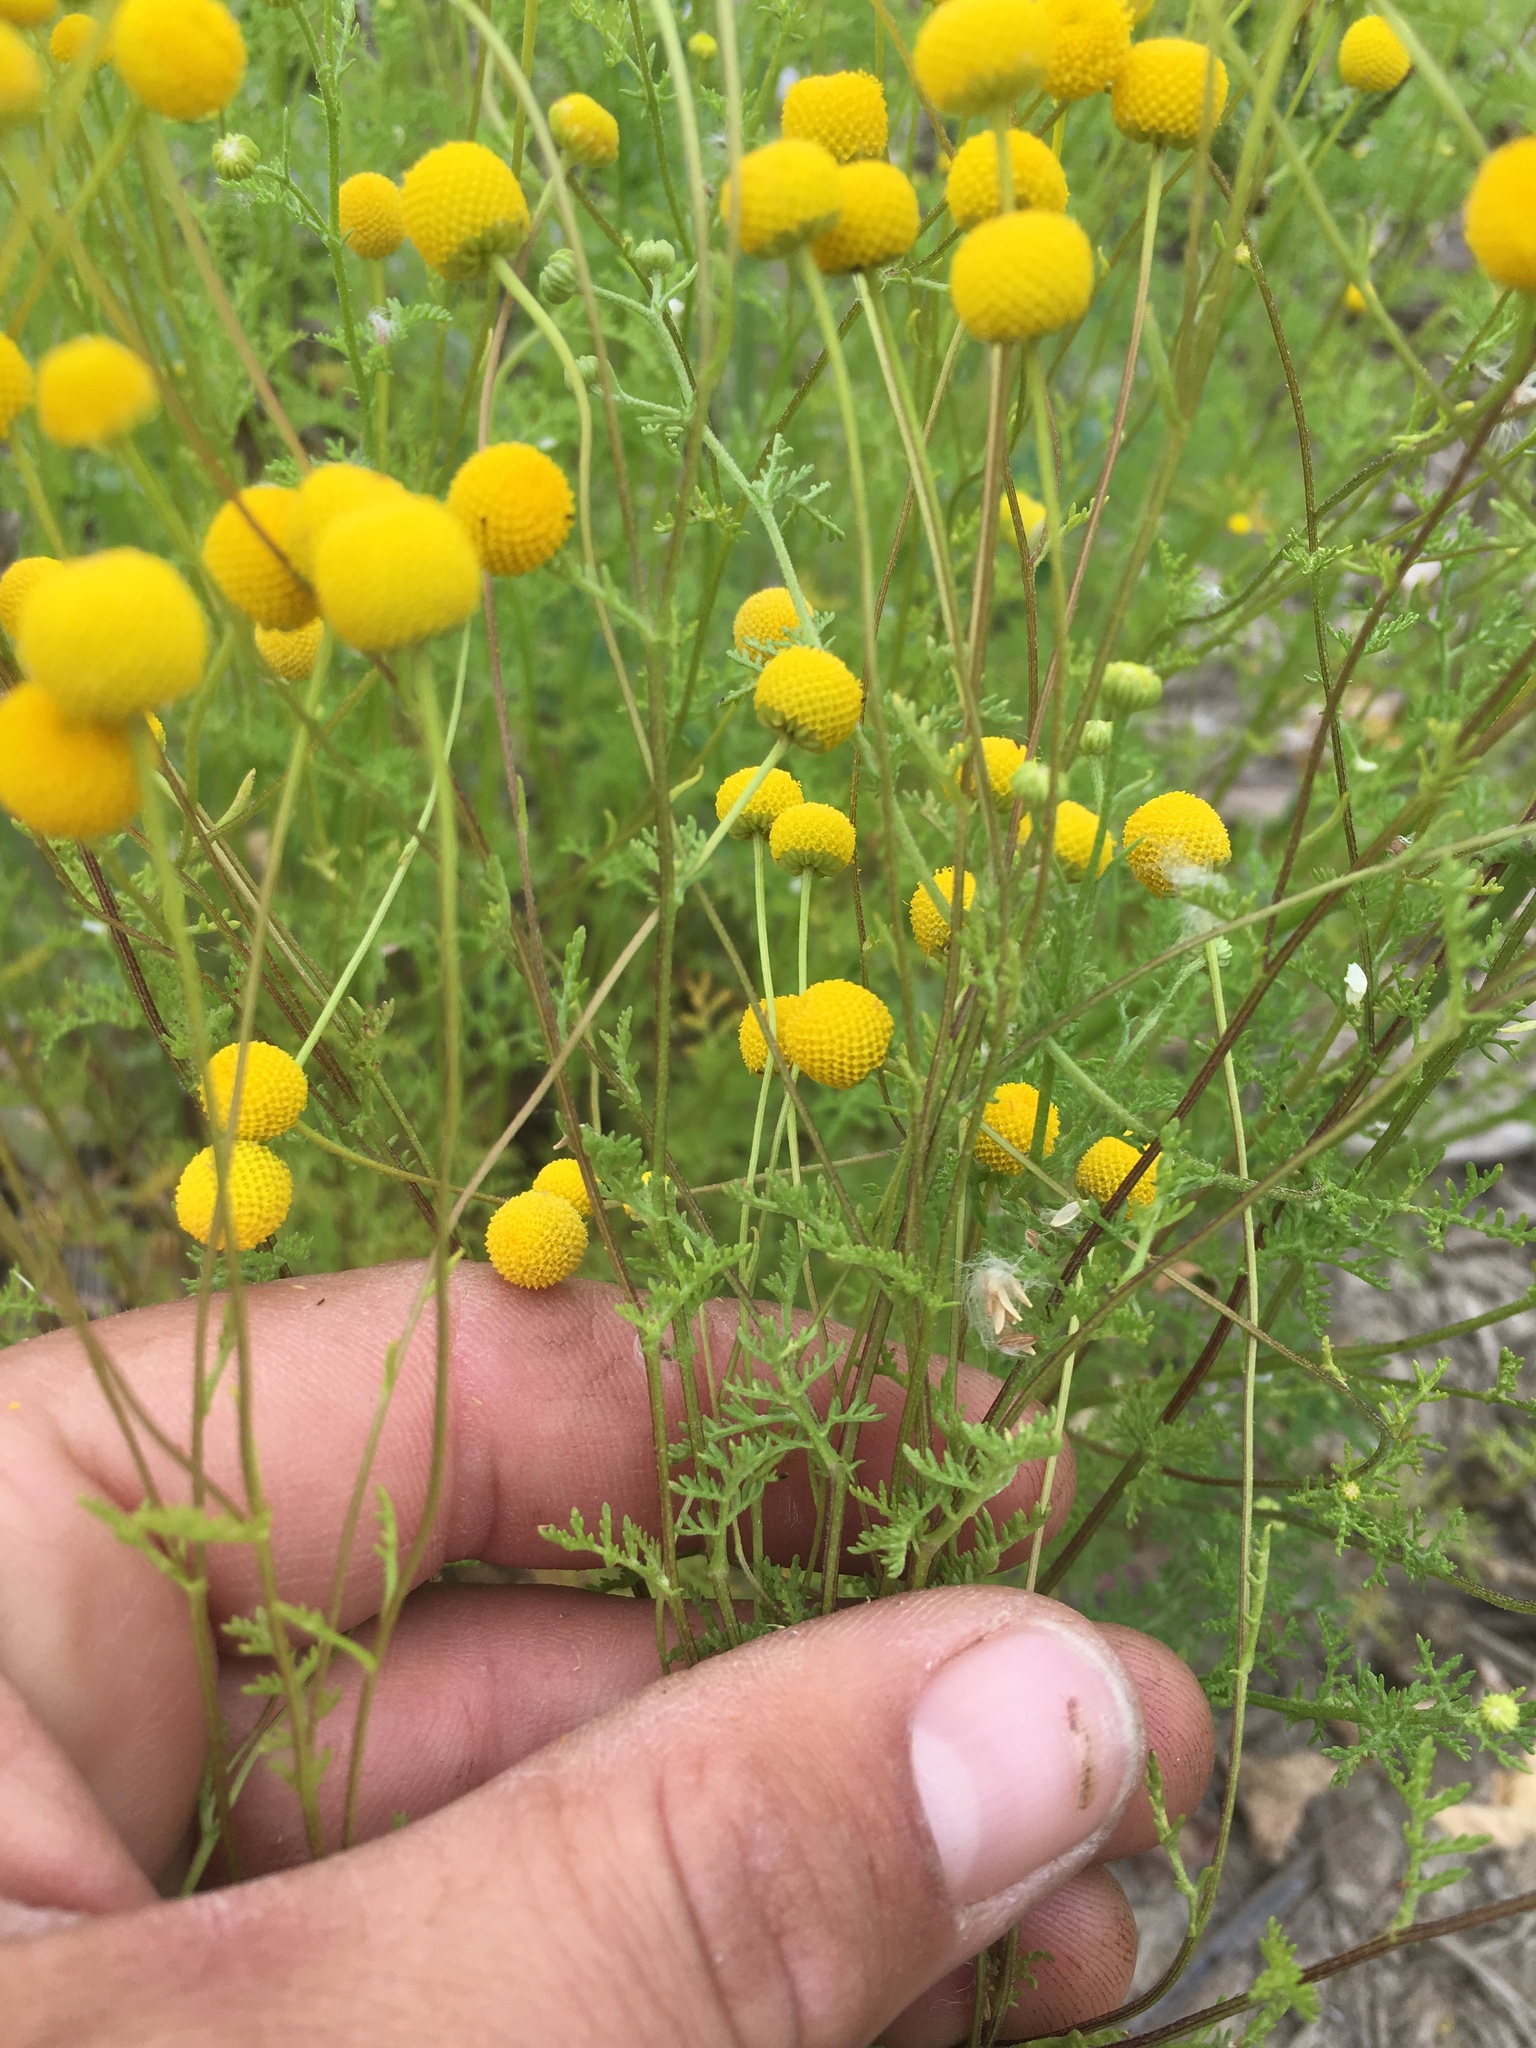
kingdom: Plantae
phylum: Tracheophyta
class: Magnoliopsida
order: Asterales
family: Asteraceae
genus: Oncosiphon
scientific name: Oncosiphon pilulifer
